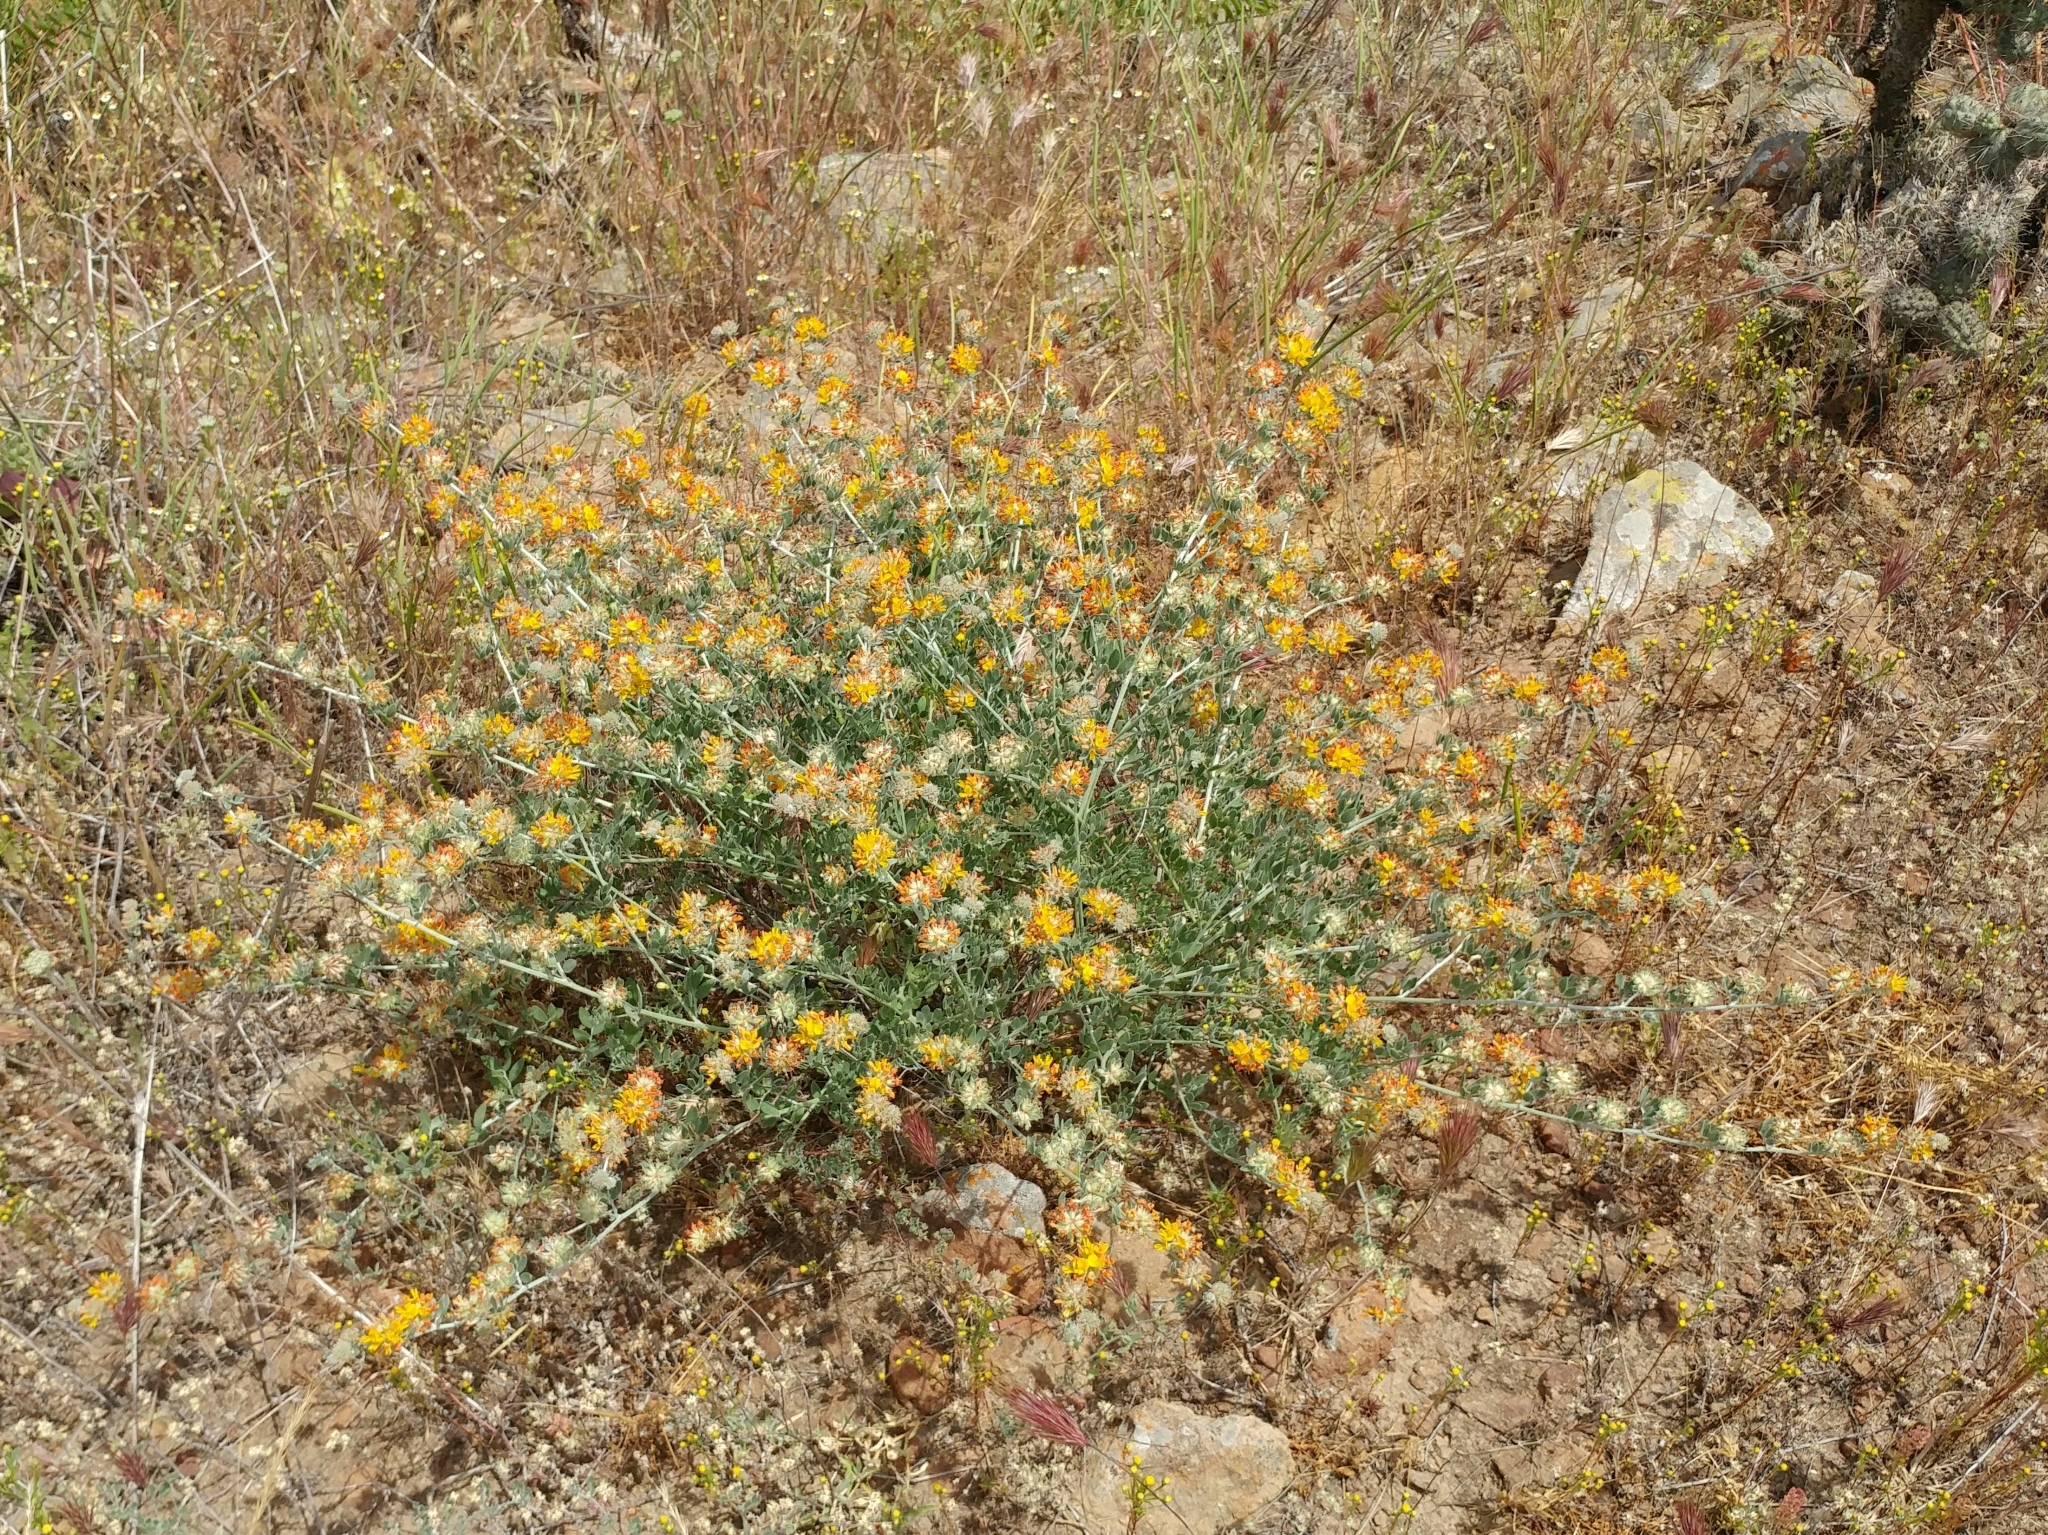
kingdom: Plantae
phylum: Tracheophyta
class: Magnoliopsida
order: Fabales
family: Fabaceae
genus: Acmispon
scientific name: Acmispon argophyllus
